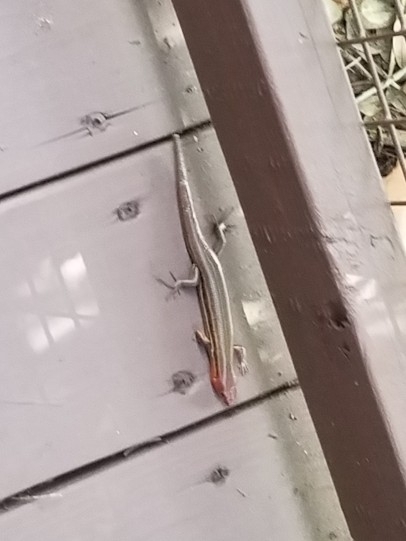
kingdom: Animalia
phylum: Chordata
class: Squamata
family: Scincidae
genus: Plestiodon
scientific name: Plestiodon inexpectatus
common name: Southeastern five-lined skink
